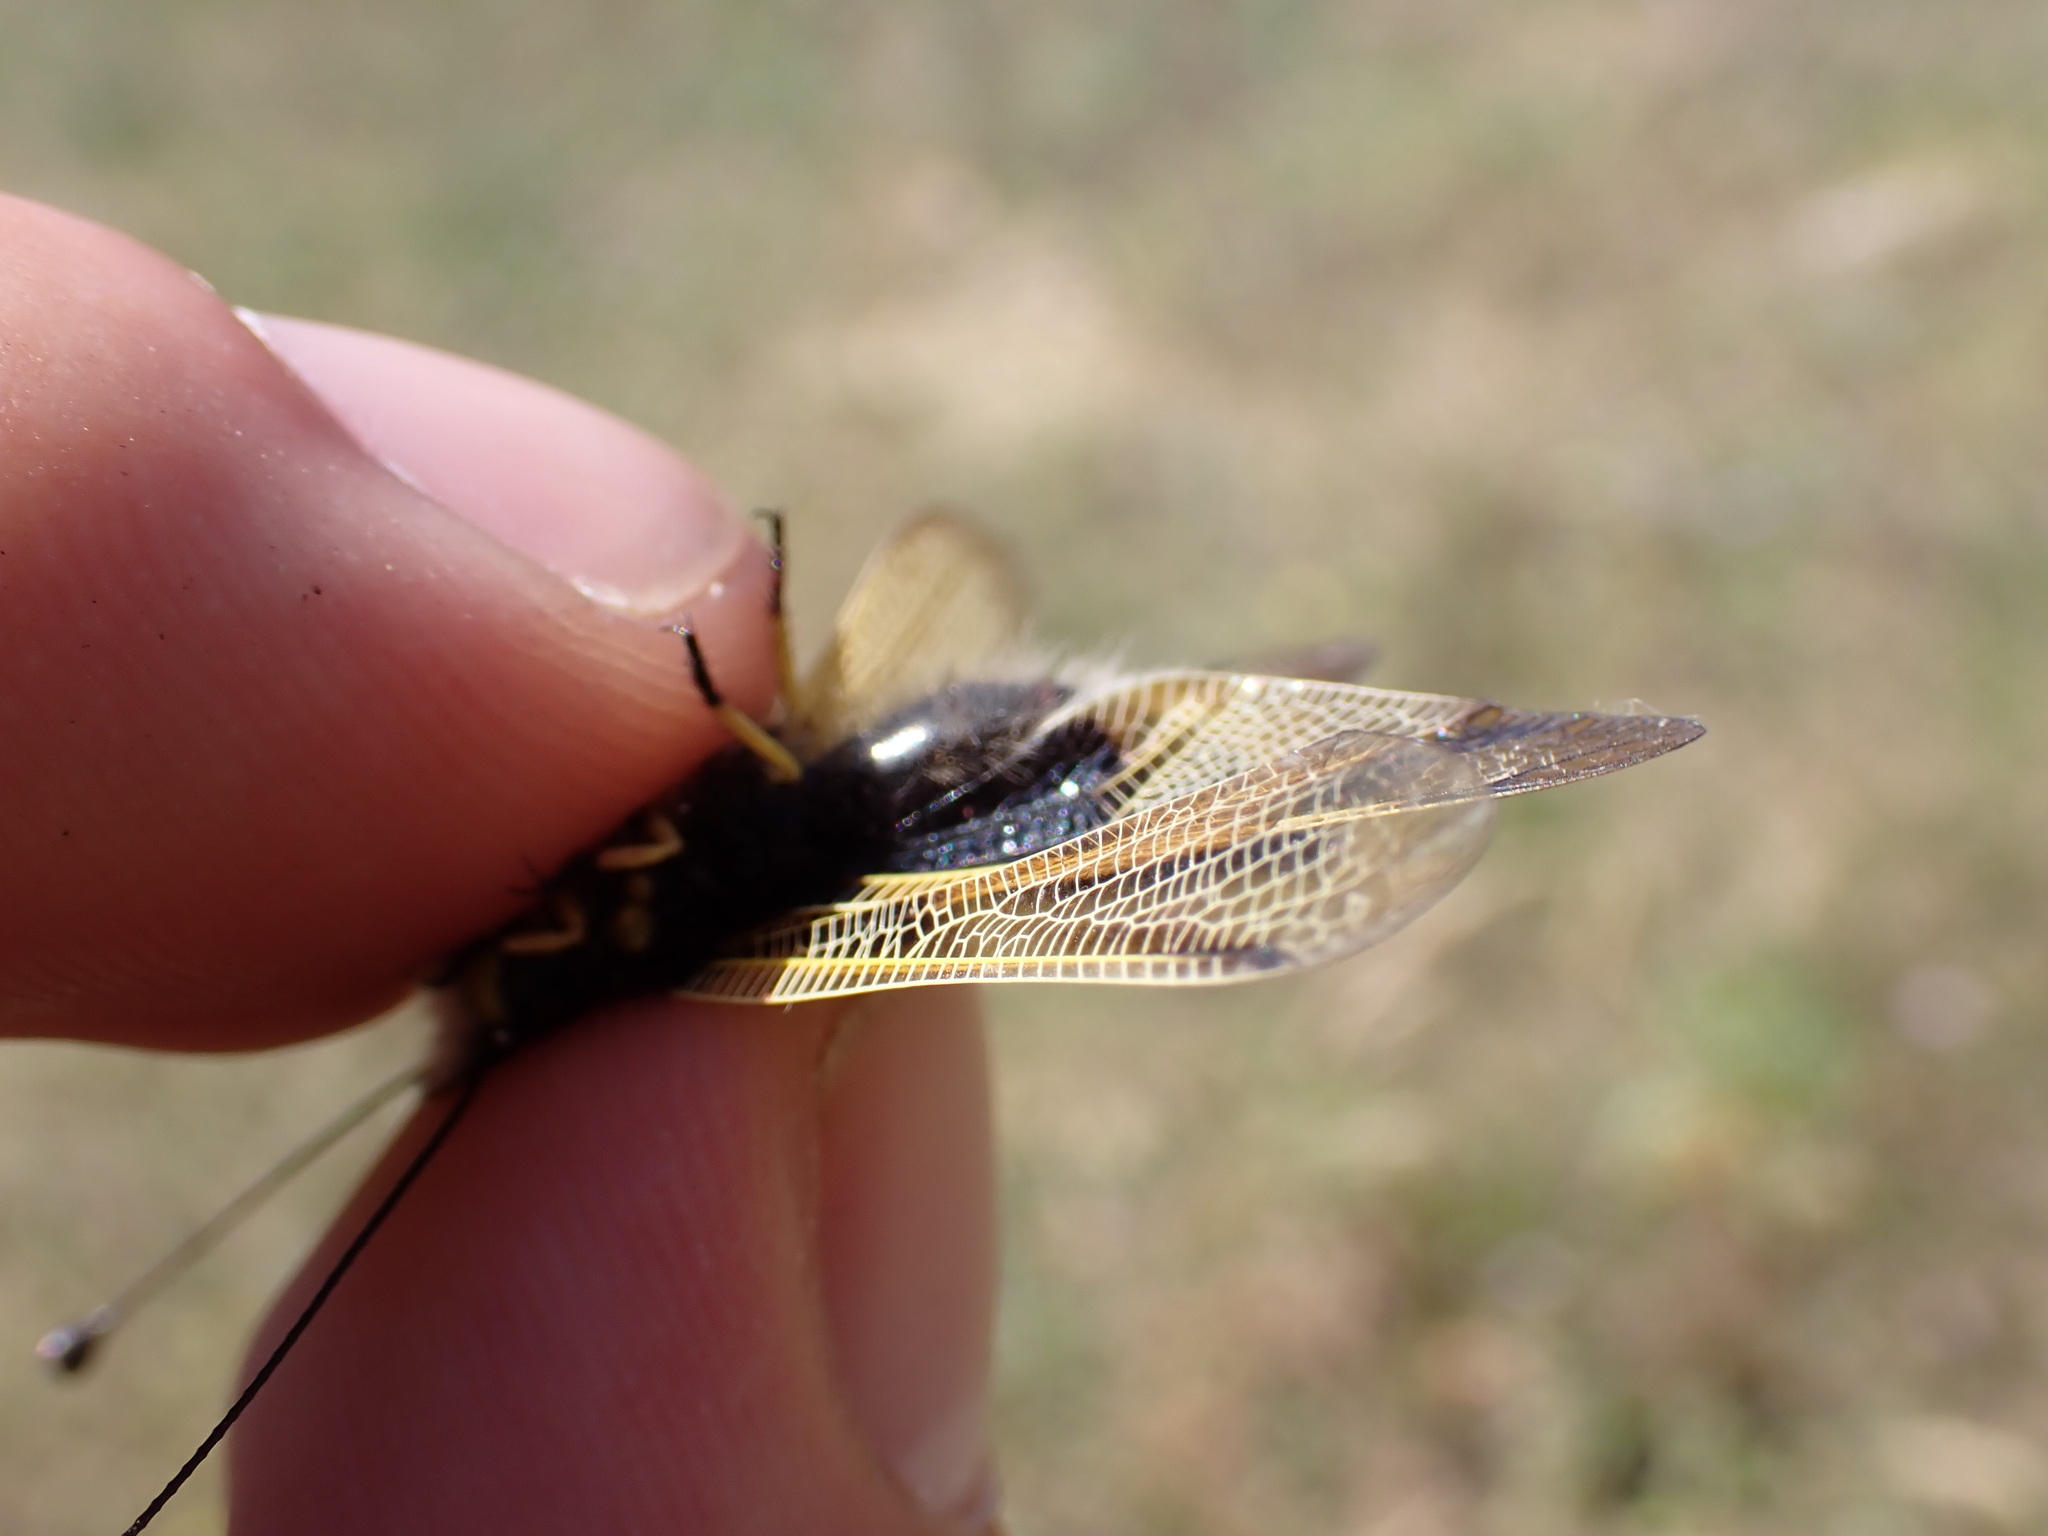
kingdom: Animalia
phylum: Arthropoda
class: Insecta
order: Neuroptera
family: Ascalaphidae
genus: Libelloides
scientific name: Libelloides longicornis
